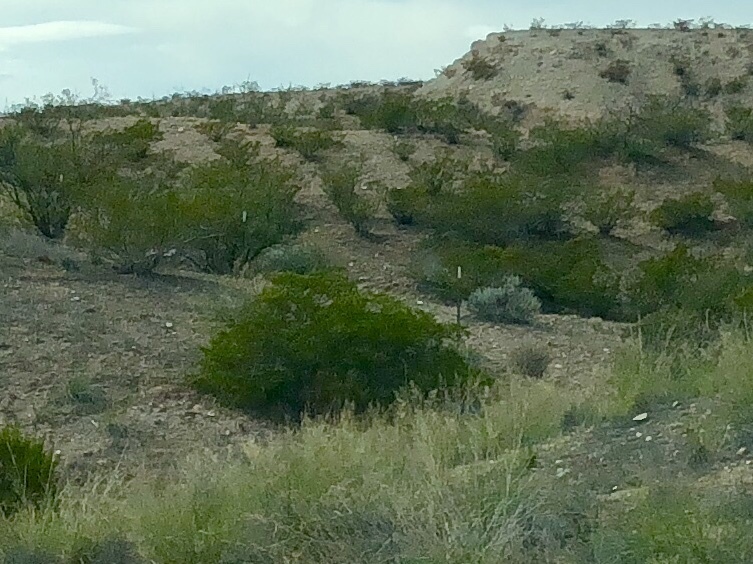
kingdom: Plantae
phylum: Tracheophyta
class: Magnoliopsida
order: Zygophyllales
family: Zygophyllaceae
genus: Larrea
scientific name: Larrea tridentata
